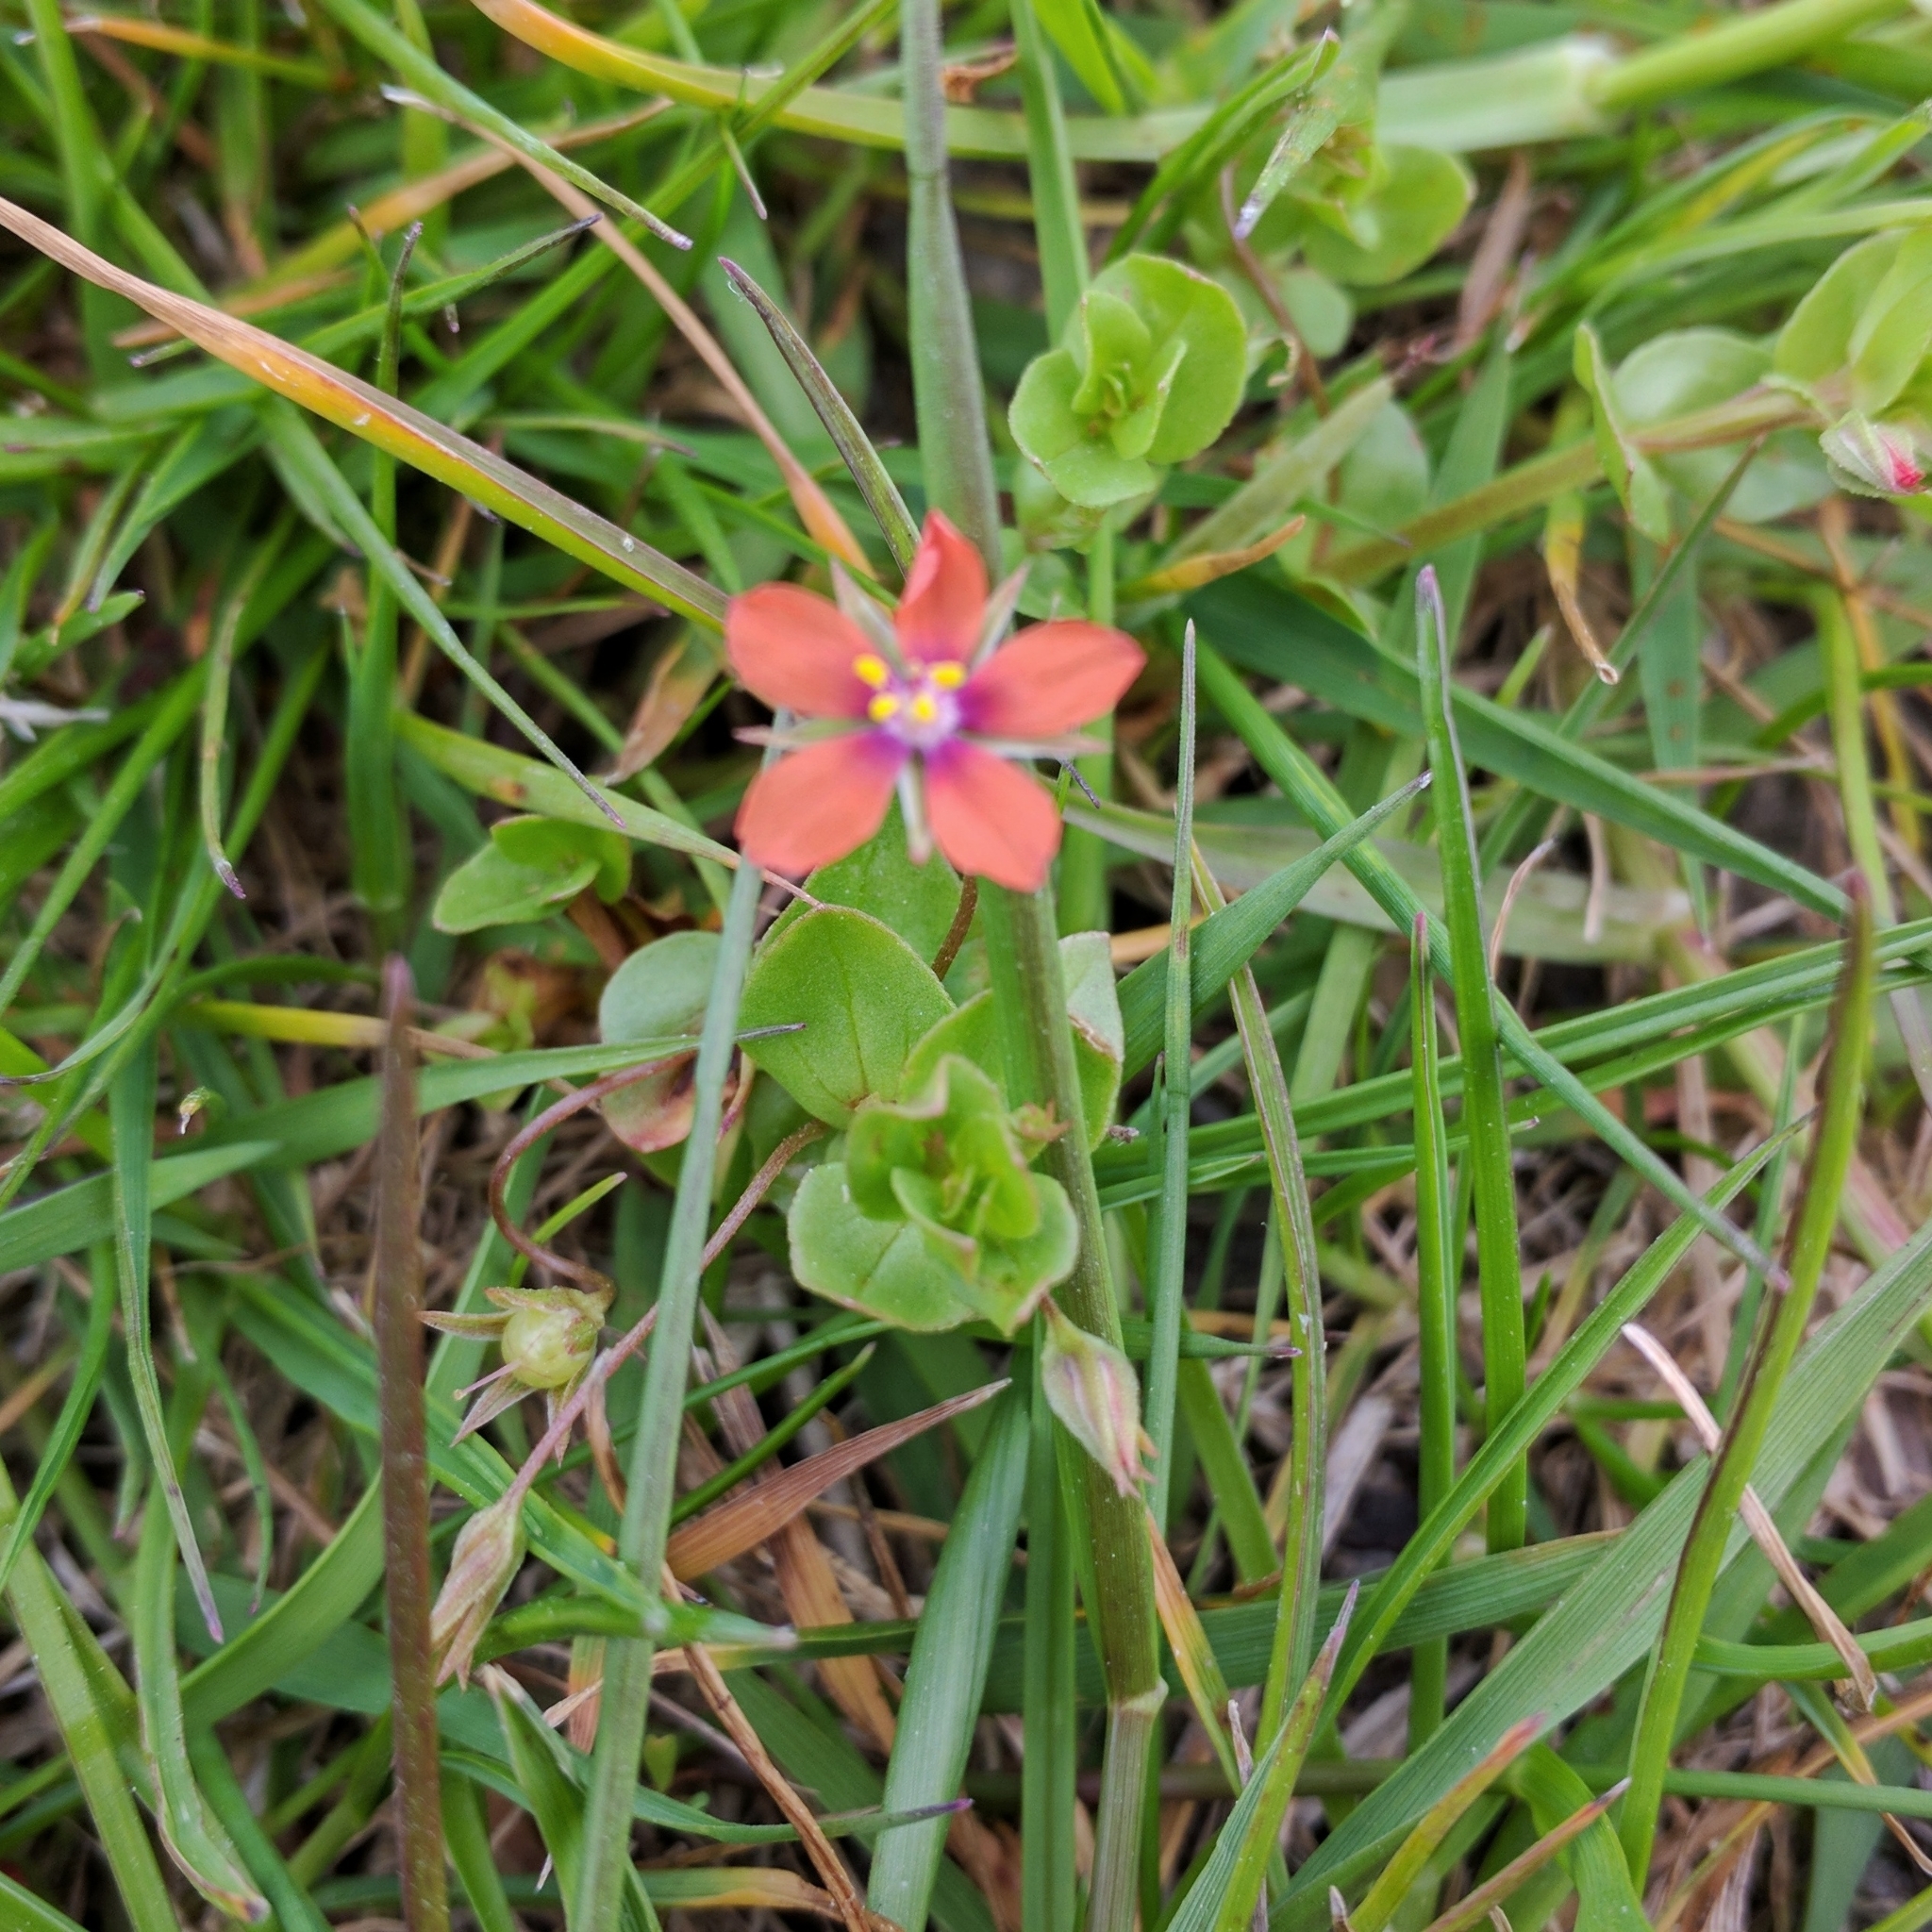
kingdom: Plantae
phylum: Tracheophyta
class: Magnoliopsida
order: Ericales
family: Primulaceae
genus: Lysimachia
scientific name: Lysimachia arvensis
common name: Scarlet pimpernel
